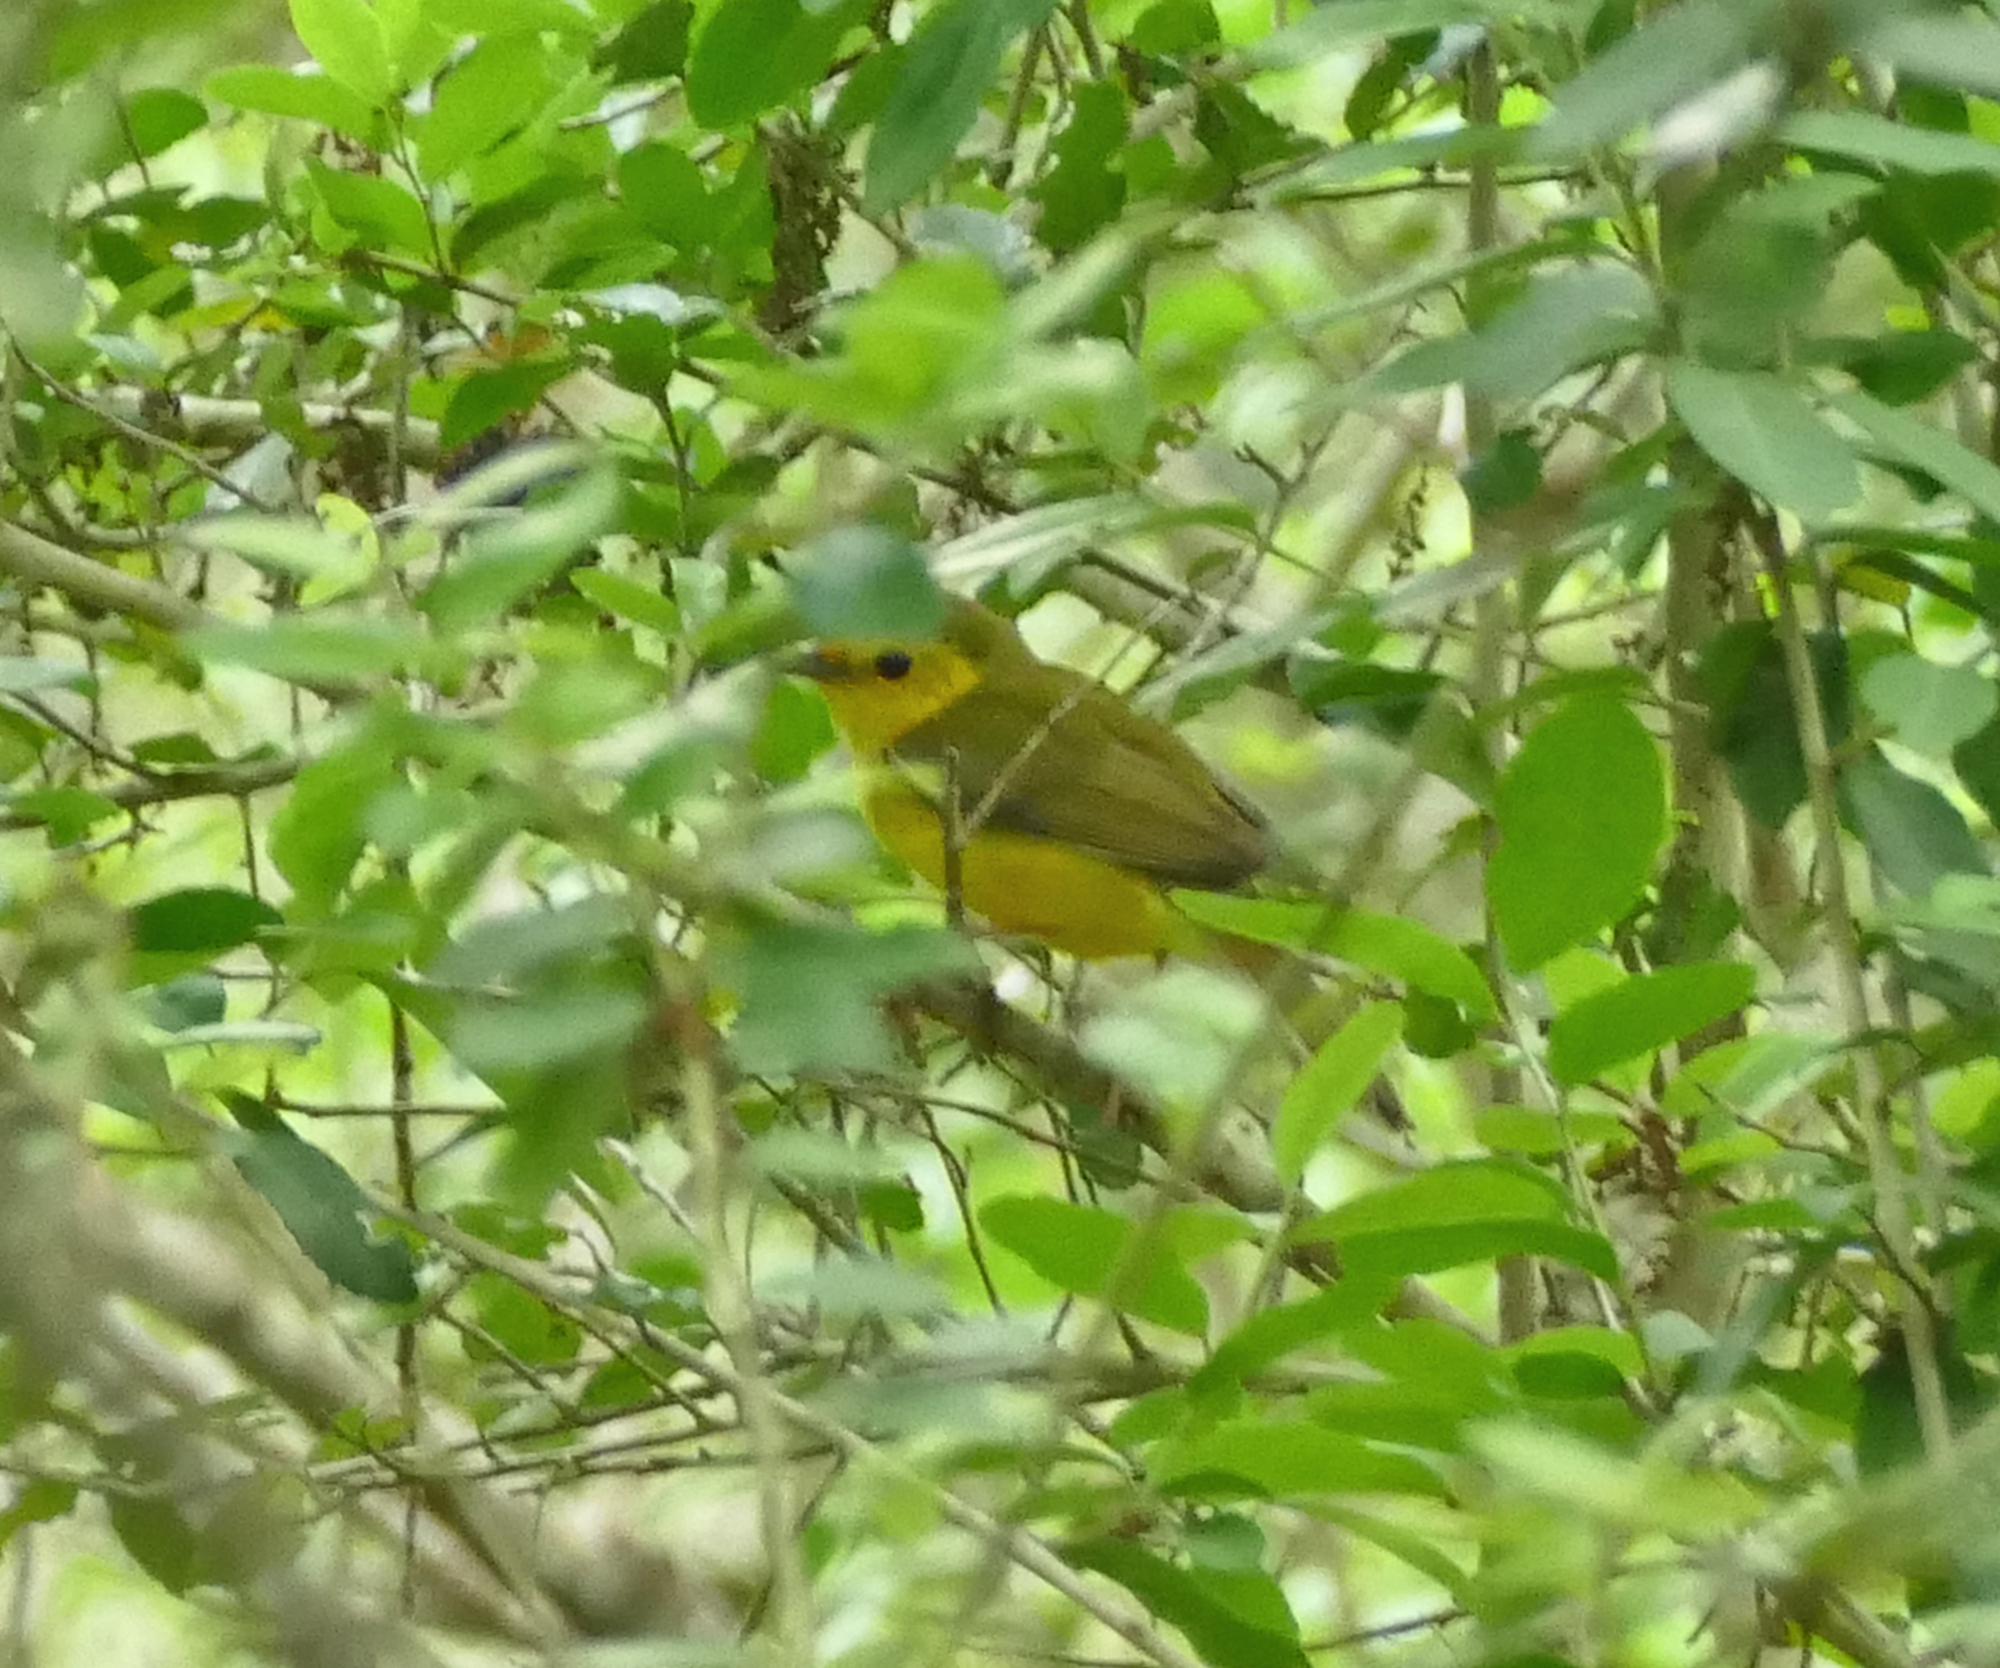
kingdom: Animalia
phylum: Chordata
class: Aves
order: Passeriformes
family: Parulidae
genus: Setophaga
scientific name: Setophaga citrina
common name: Hooded warbler
